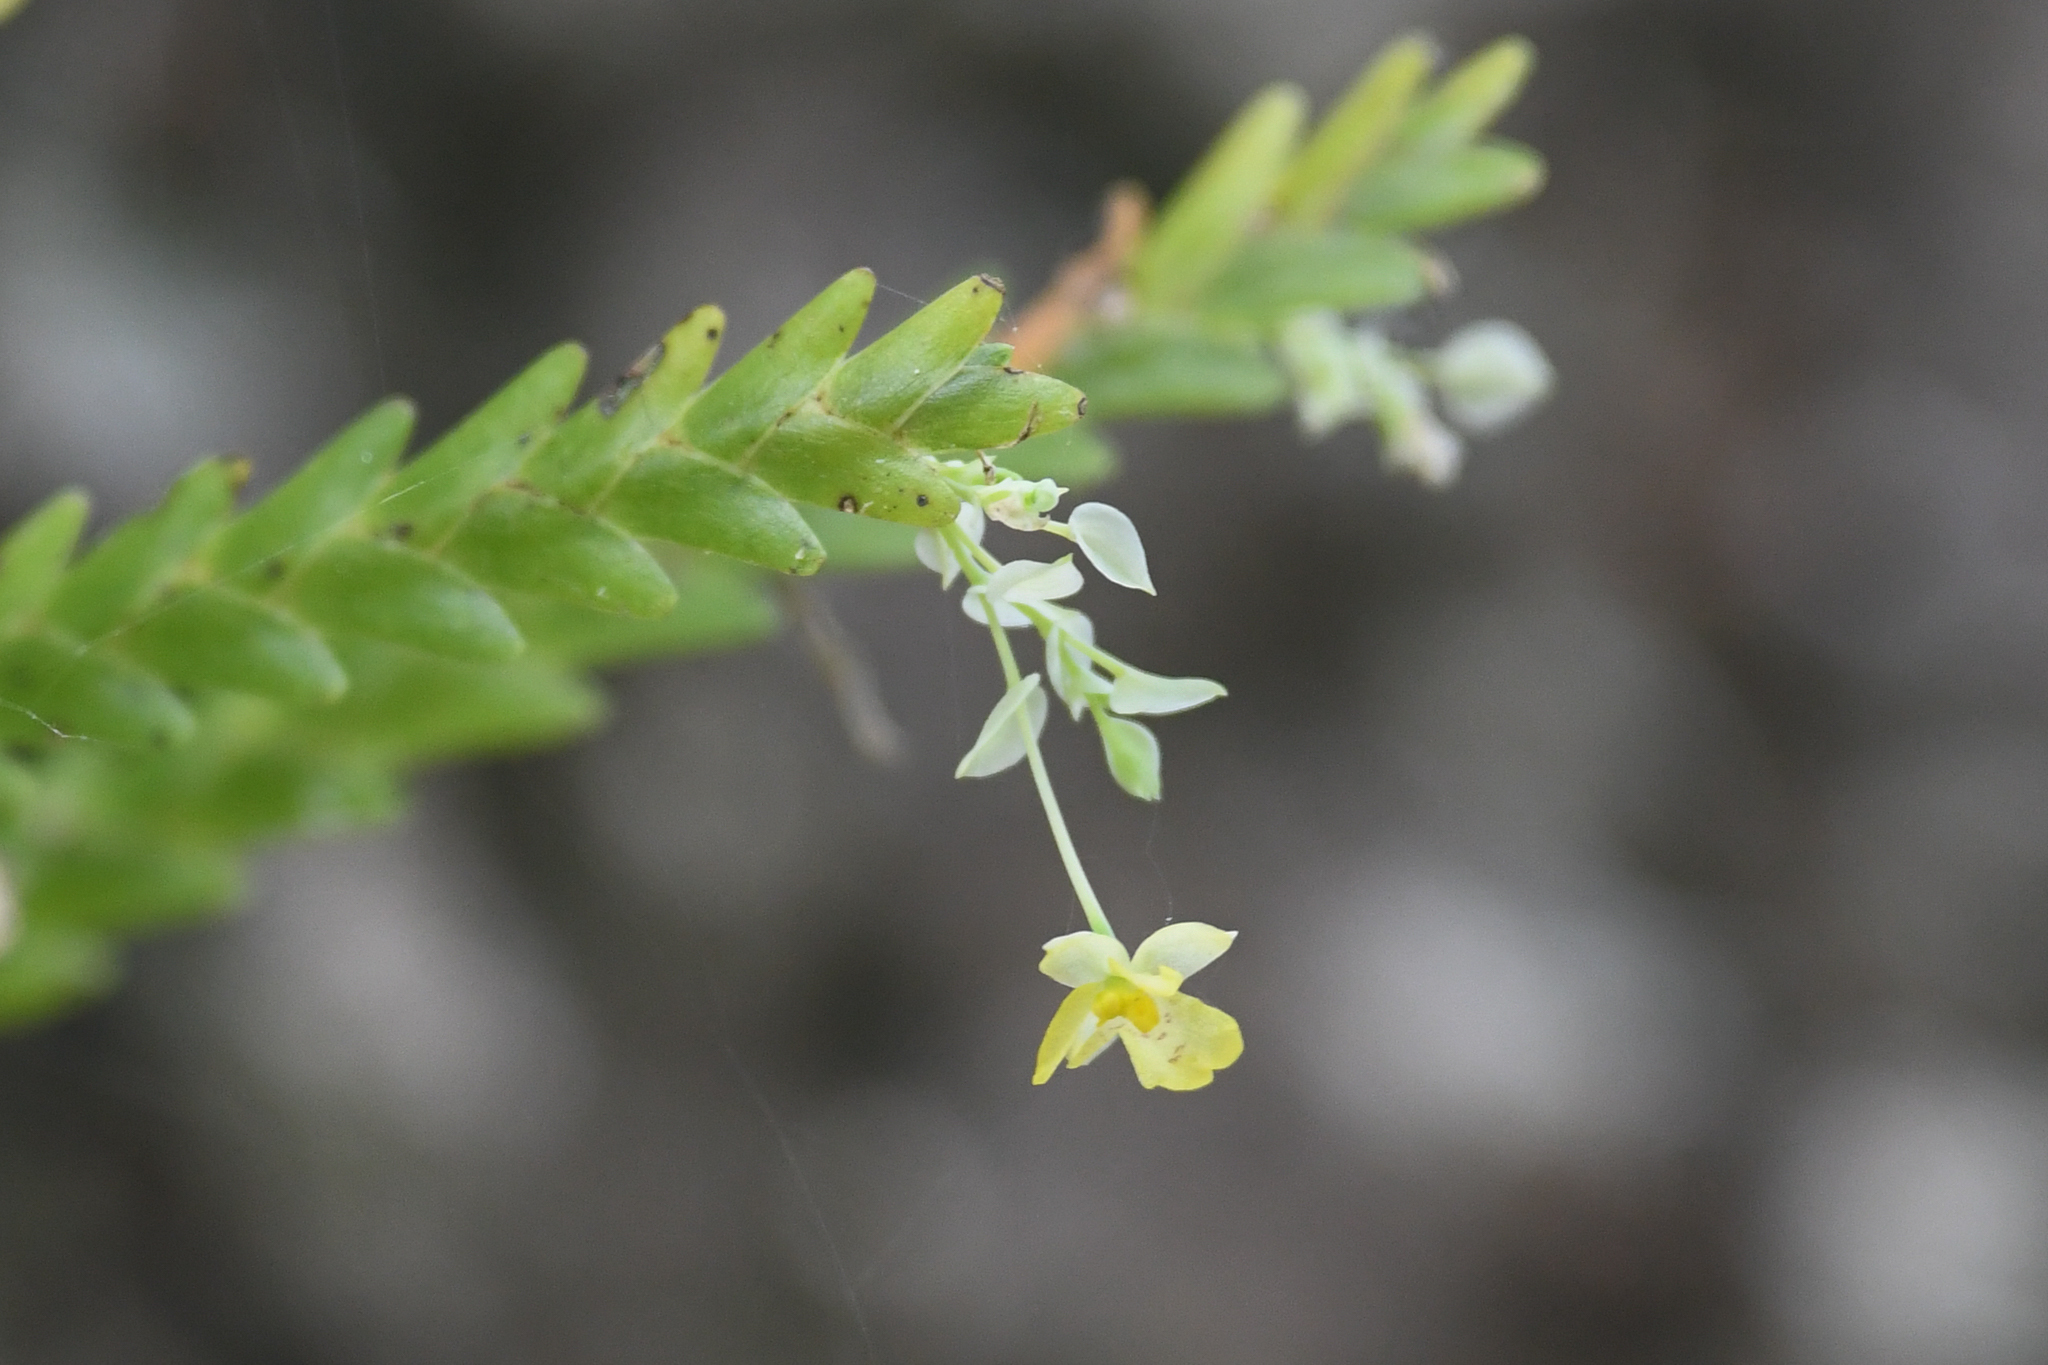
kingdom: Plantae
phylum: Tracheophyta
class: Liliopsida
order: Asparagales
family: Orchidaceae
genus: Lockhartia
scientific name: Lockhartia micrantha
